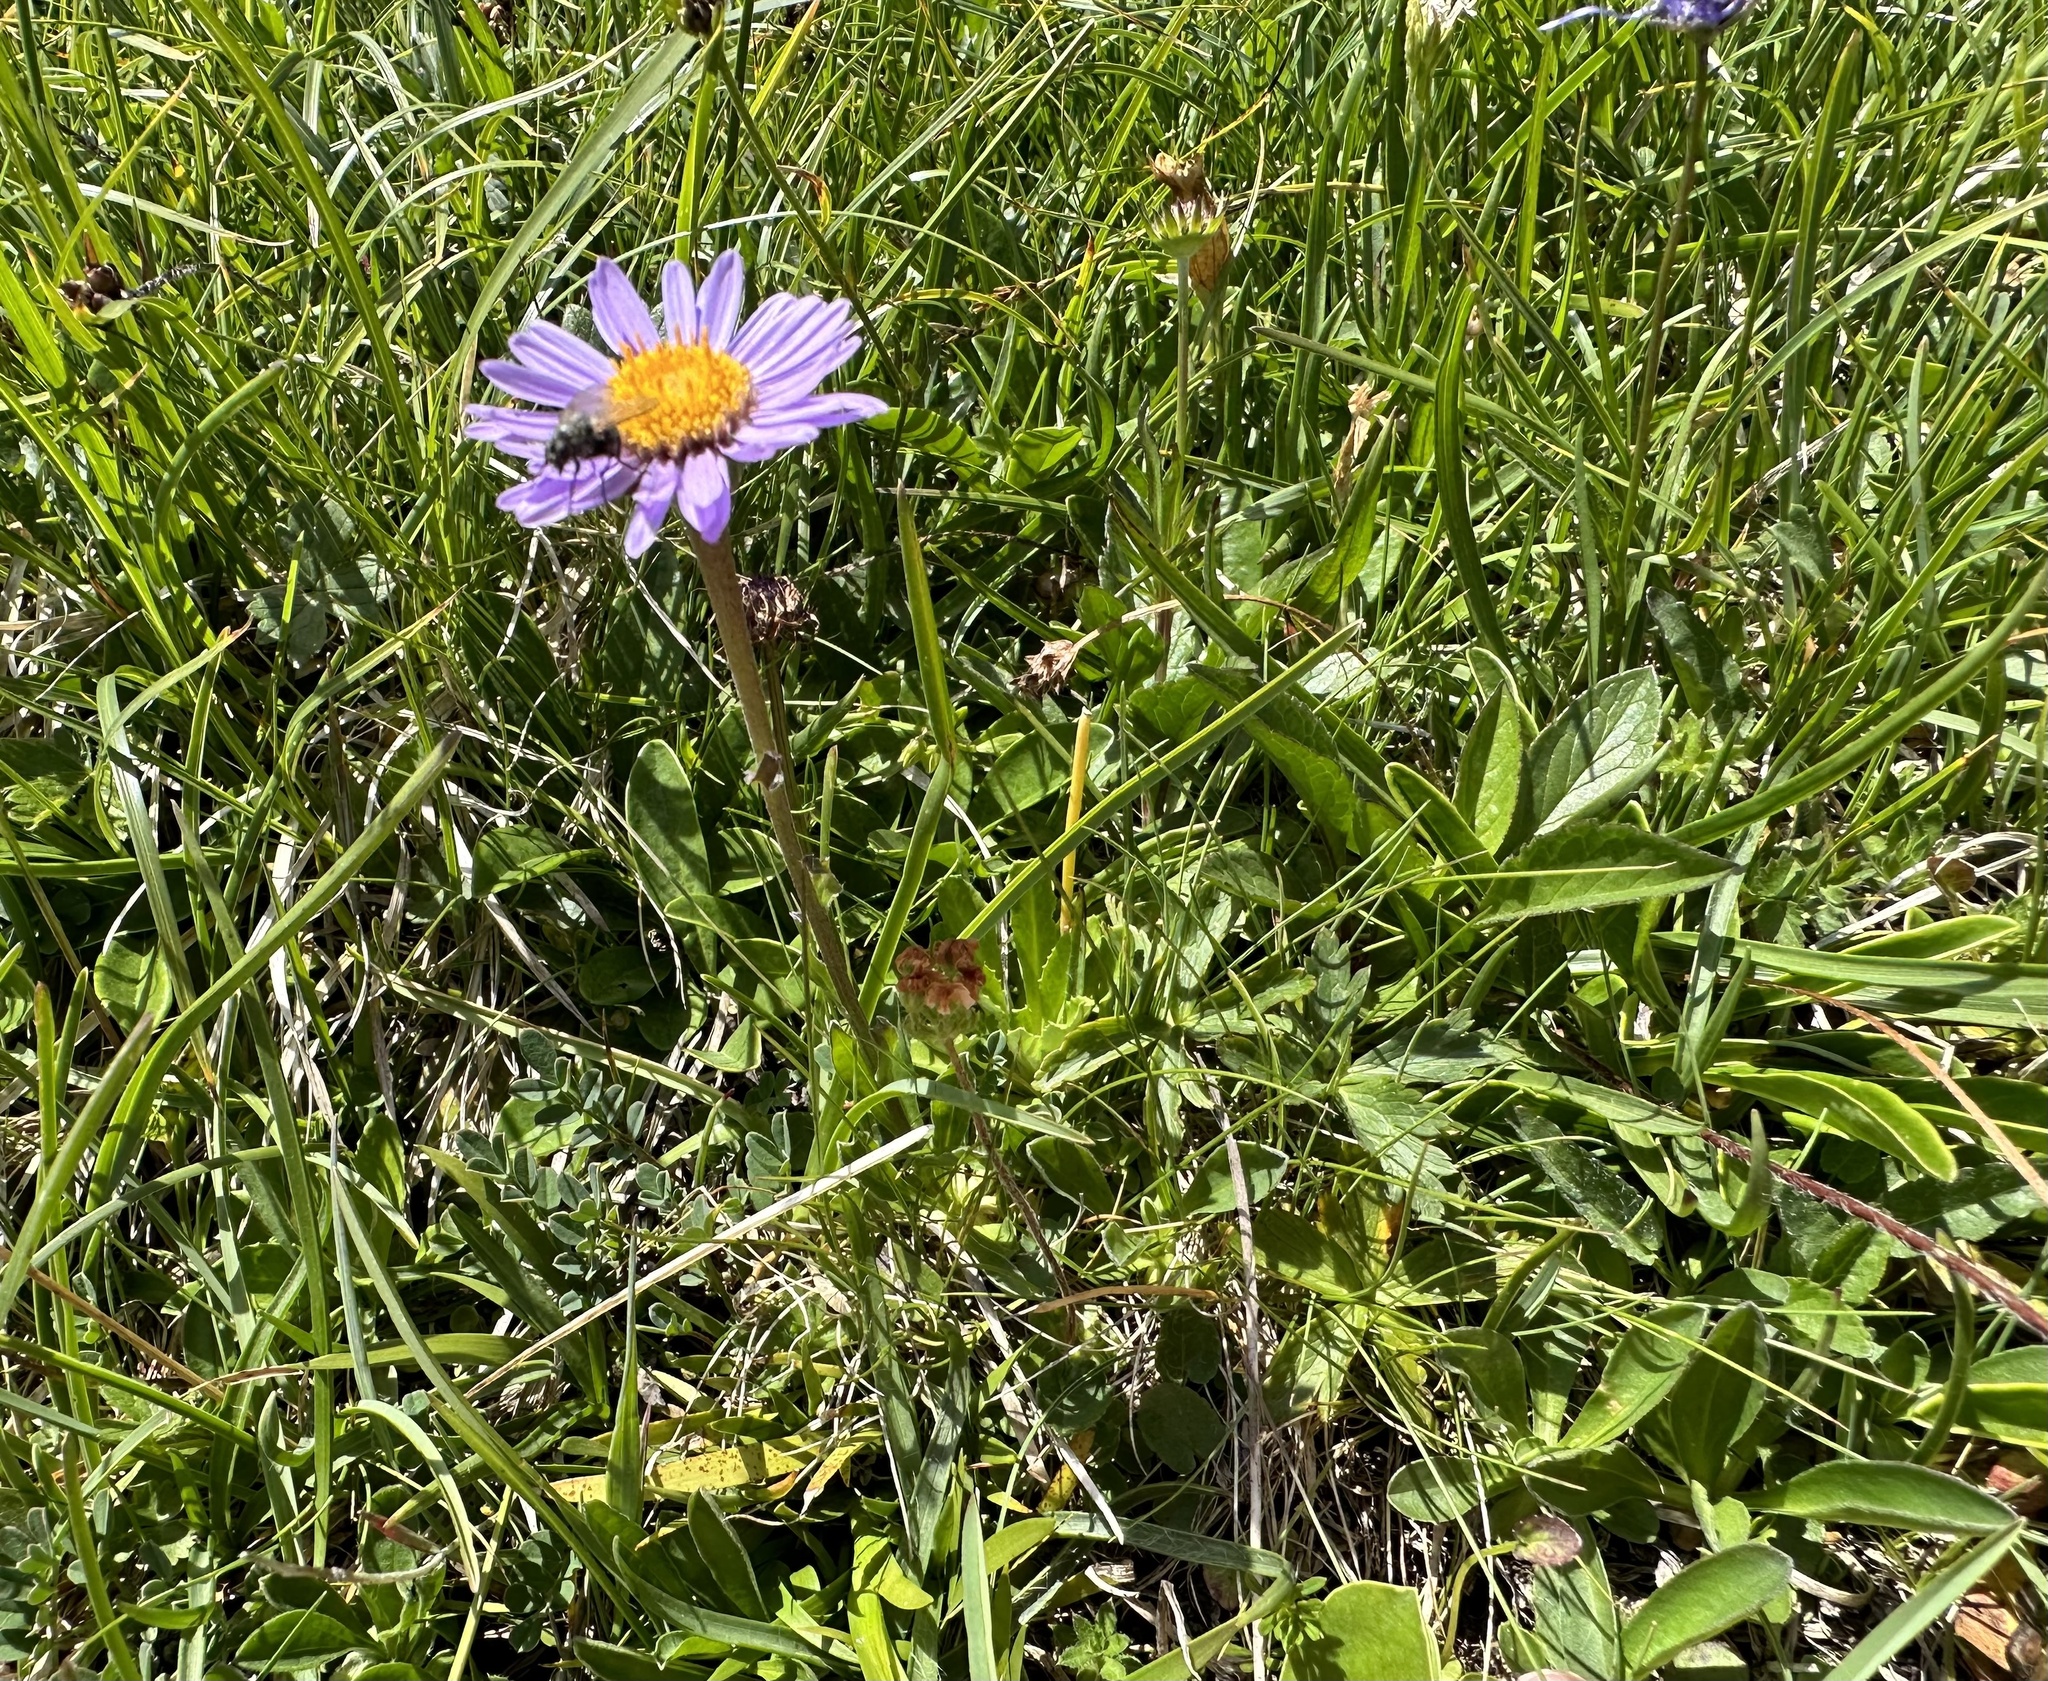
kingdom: Plantae
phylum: Tracheophyta
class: Magnoliopsida
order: Asterales
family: Asteraceae
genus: Aster
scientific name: Aster alpinus
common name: Alpine aster
